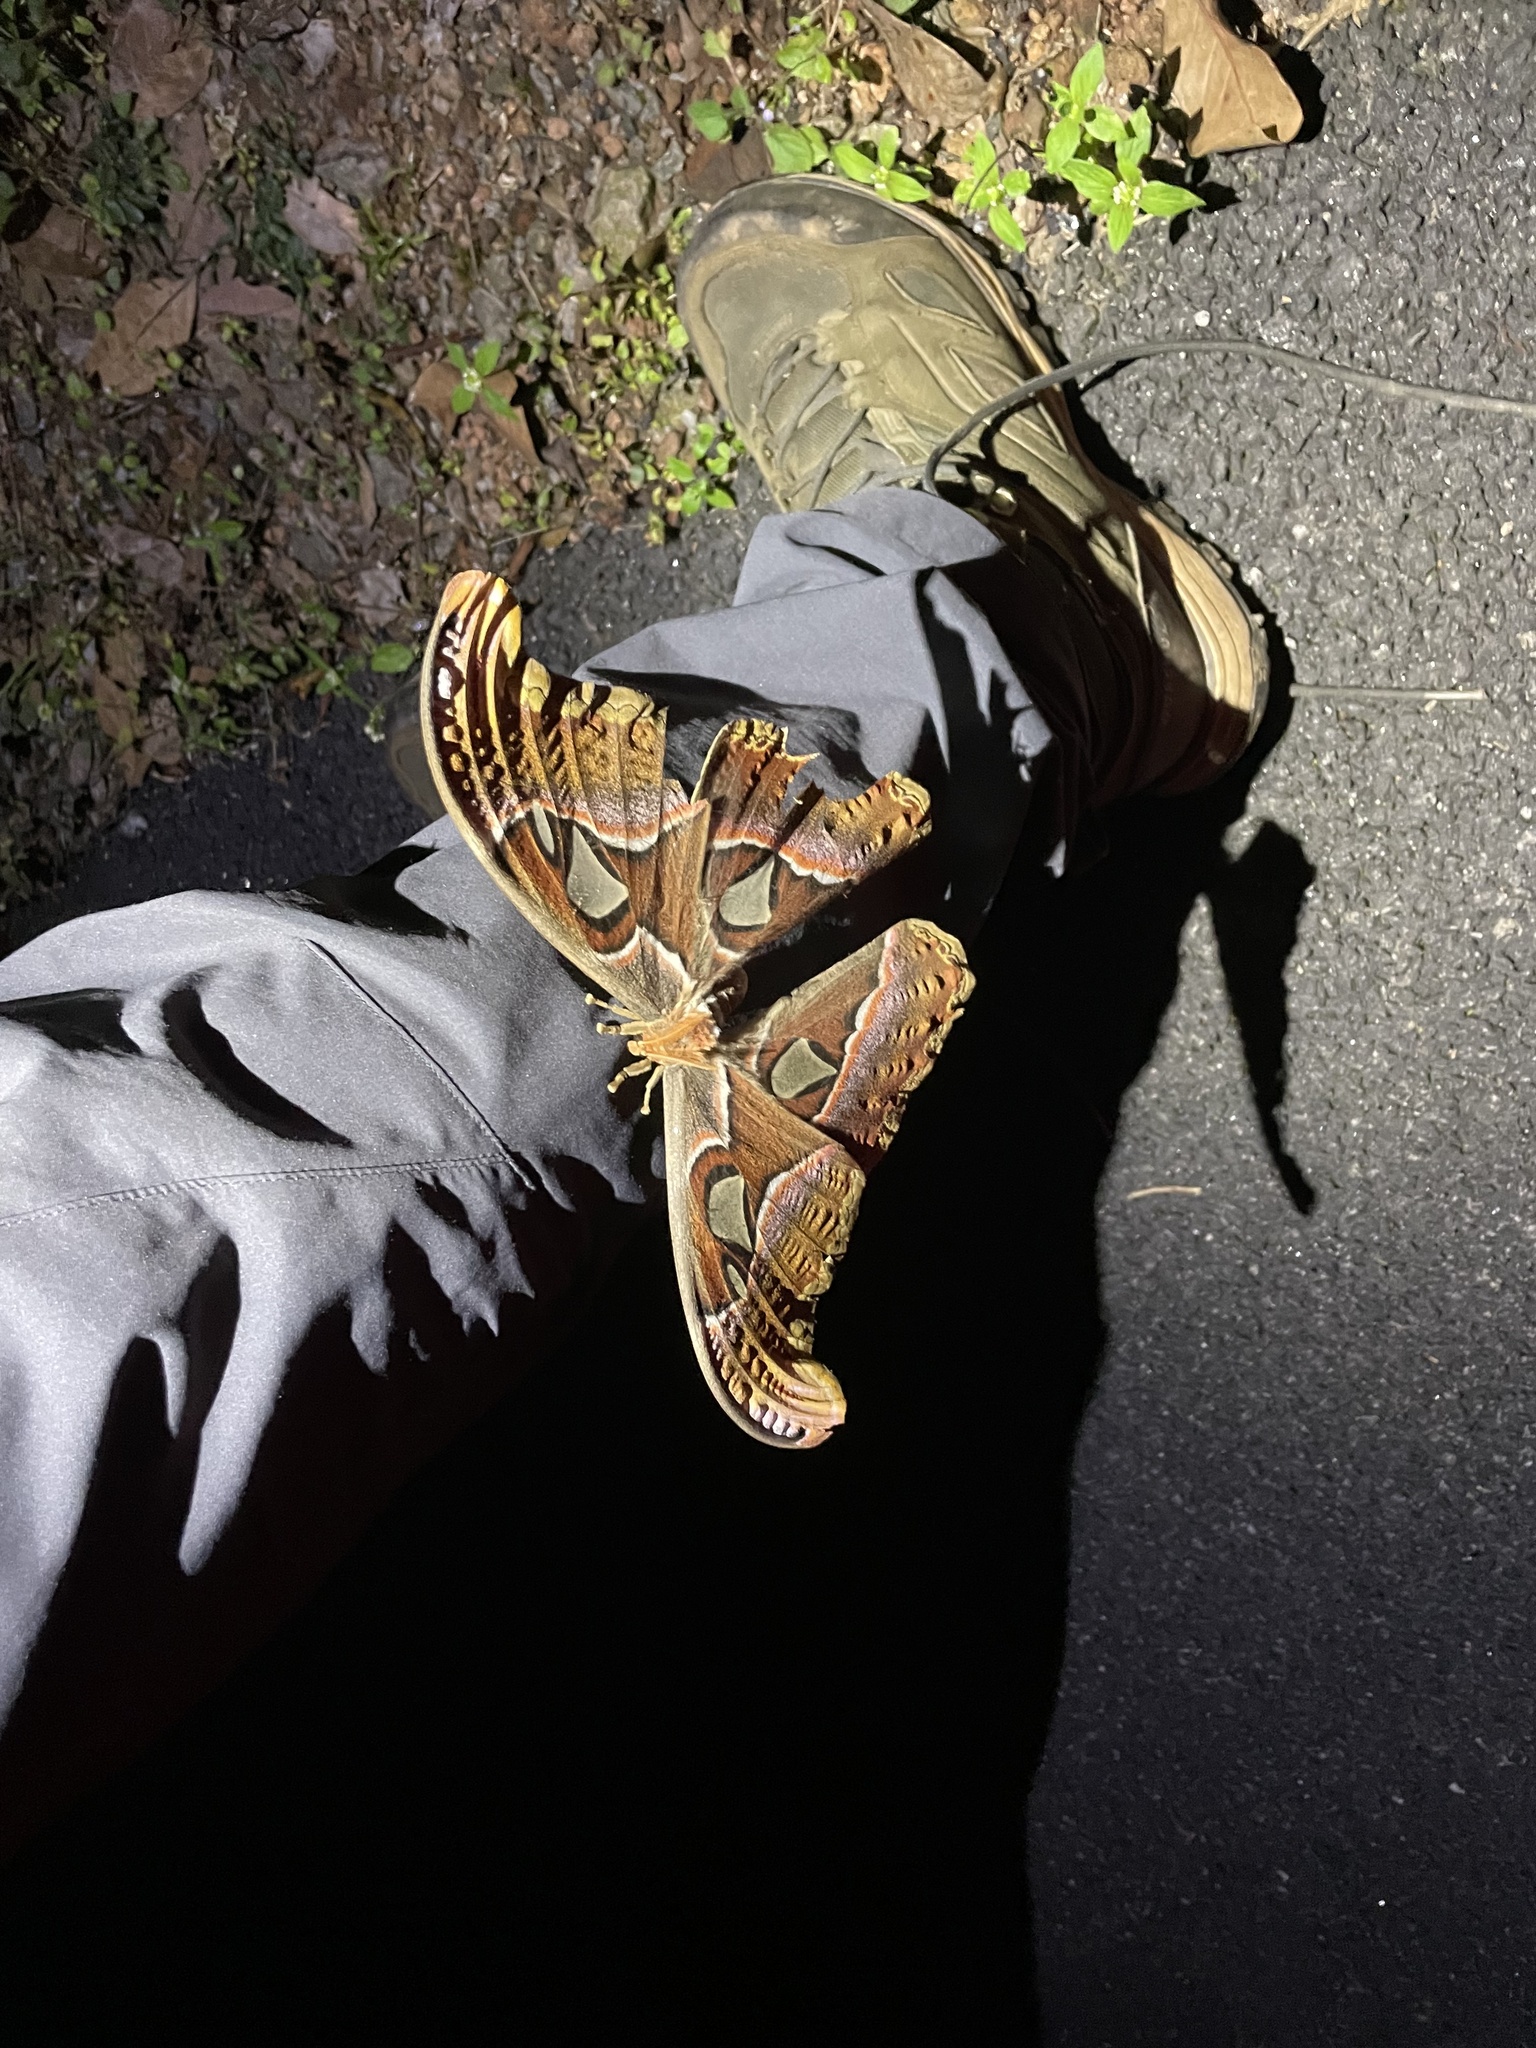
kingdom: Animalia
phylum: Arthropoda
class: Insecta
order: Lepidoptera
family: Saturniidae
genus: Attacus
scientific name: Attacus taprobanis
